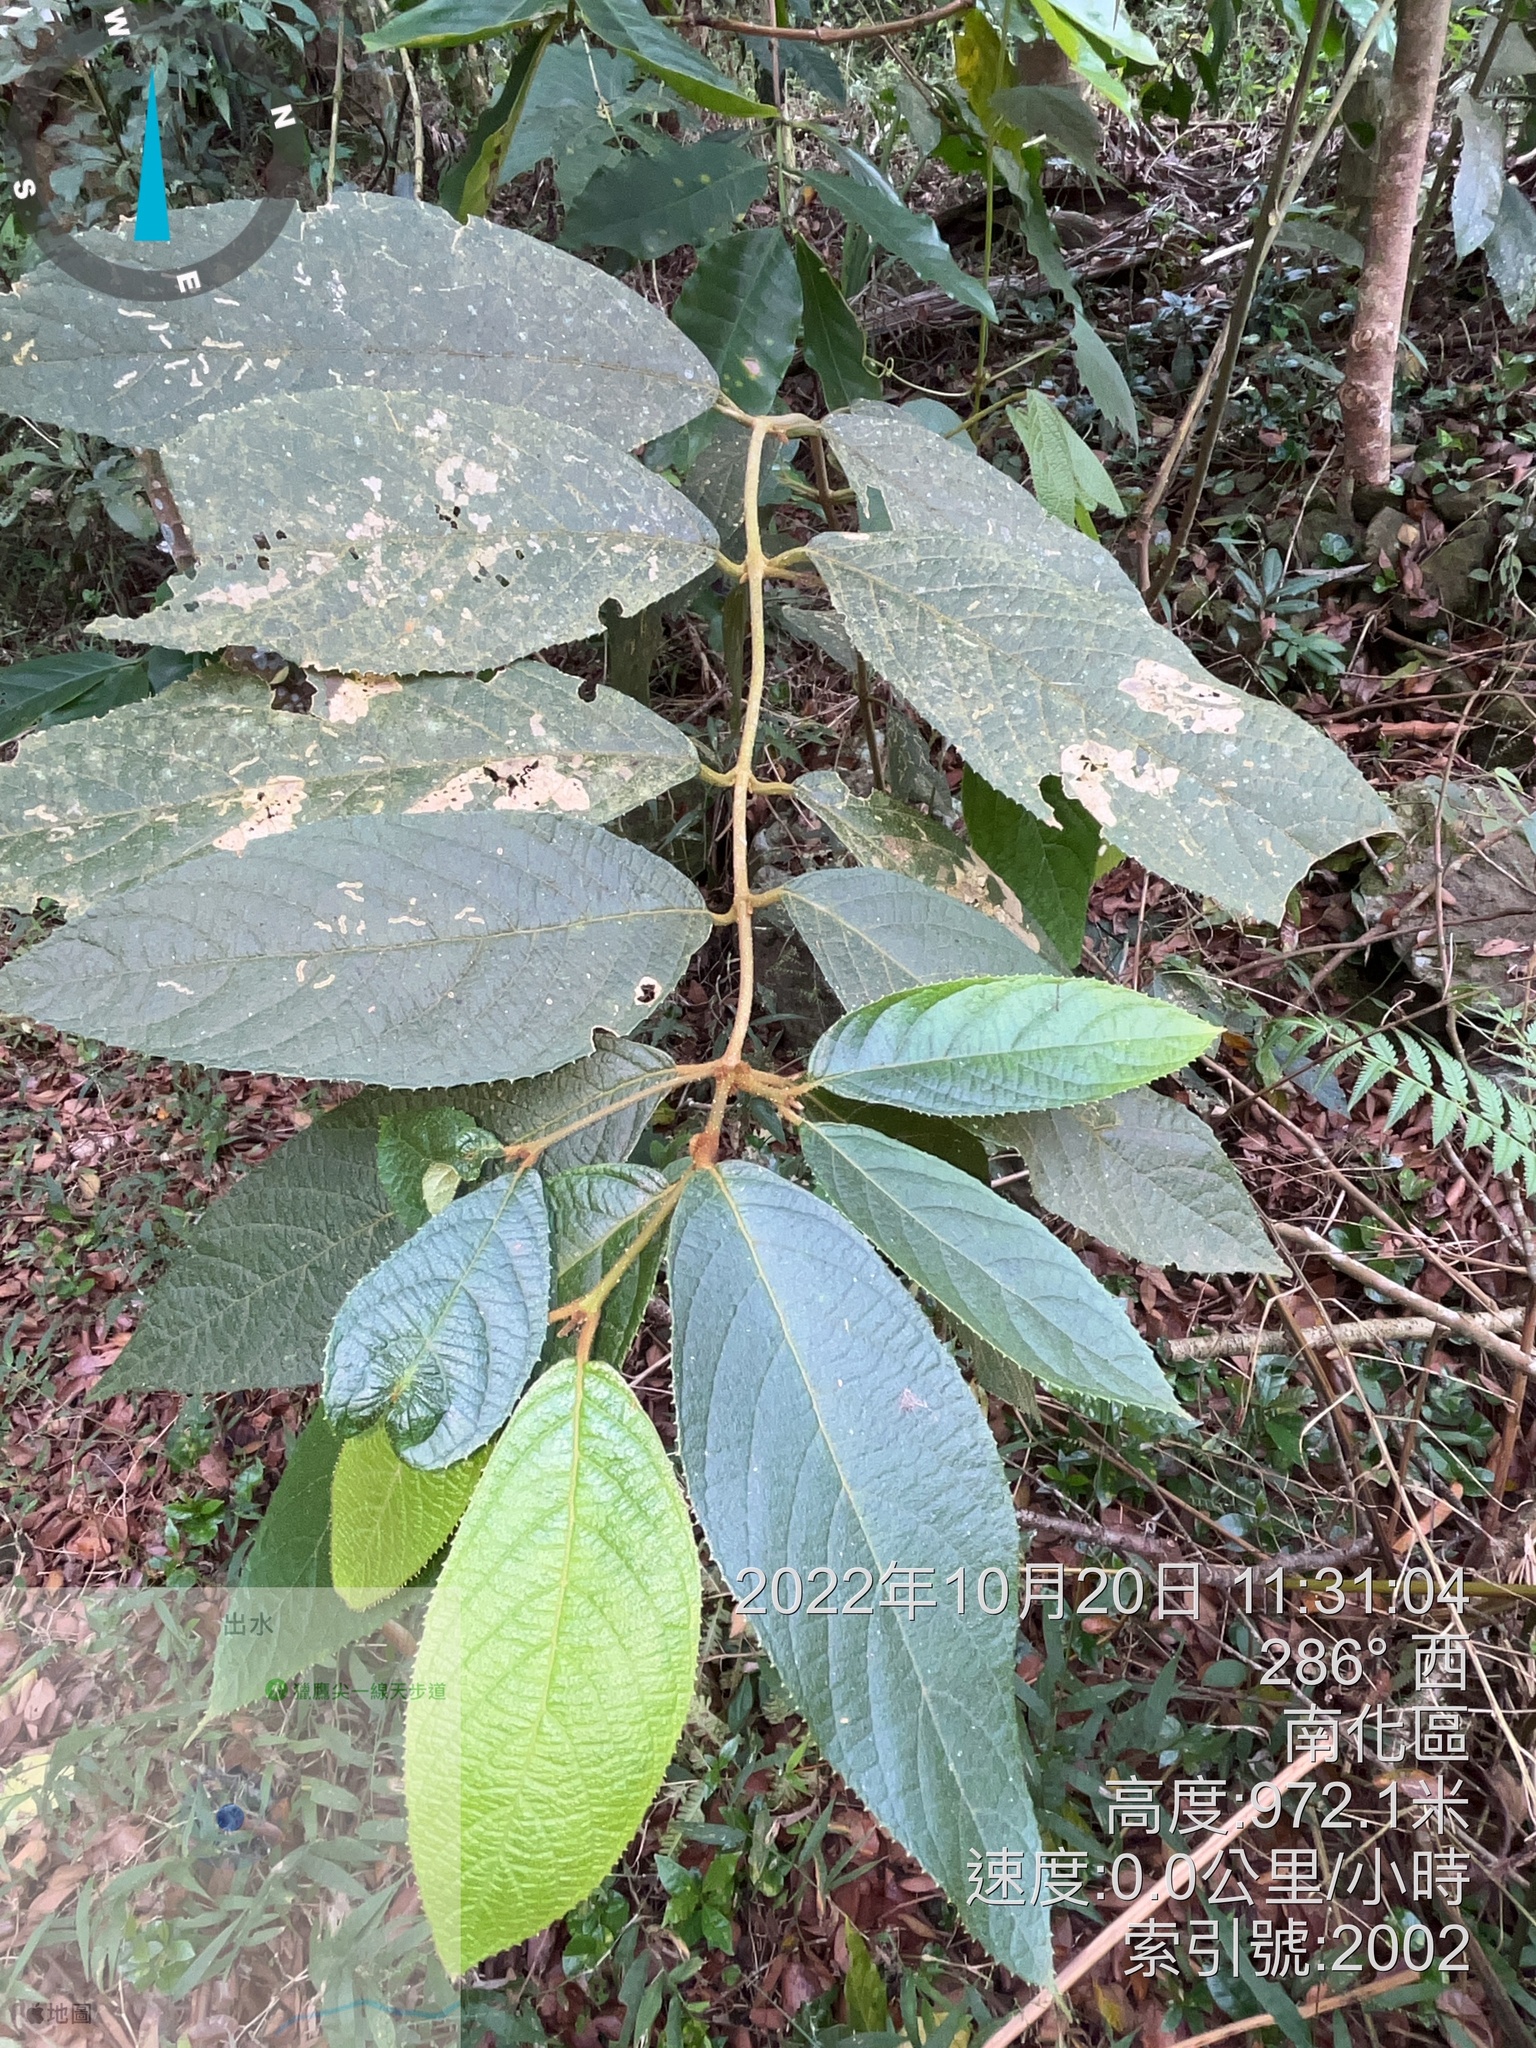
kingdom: Plantae
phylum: Tracheophyta
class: Magnoliopsida
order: Lamiales
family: Lamiaceae
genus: Callicarpa
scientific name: Callicarpa pedunculata
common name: Velvetleaf
